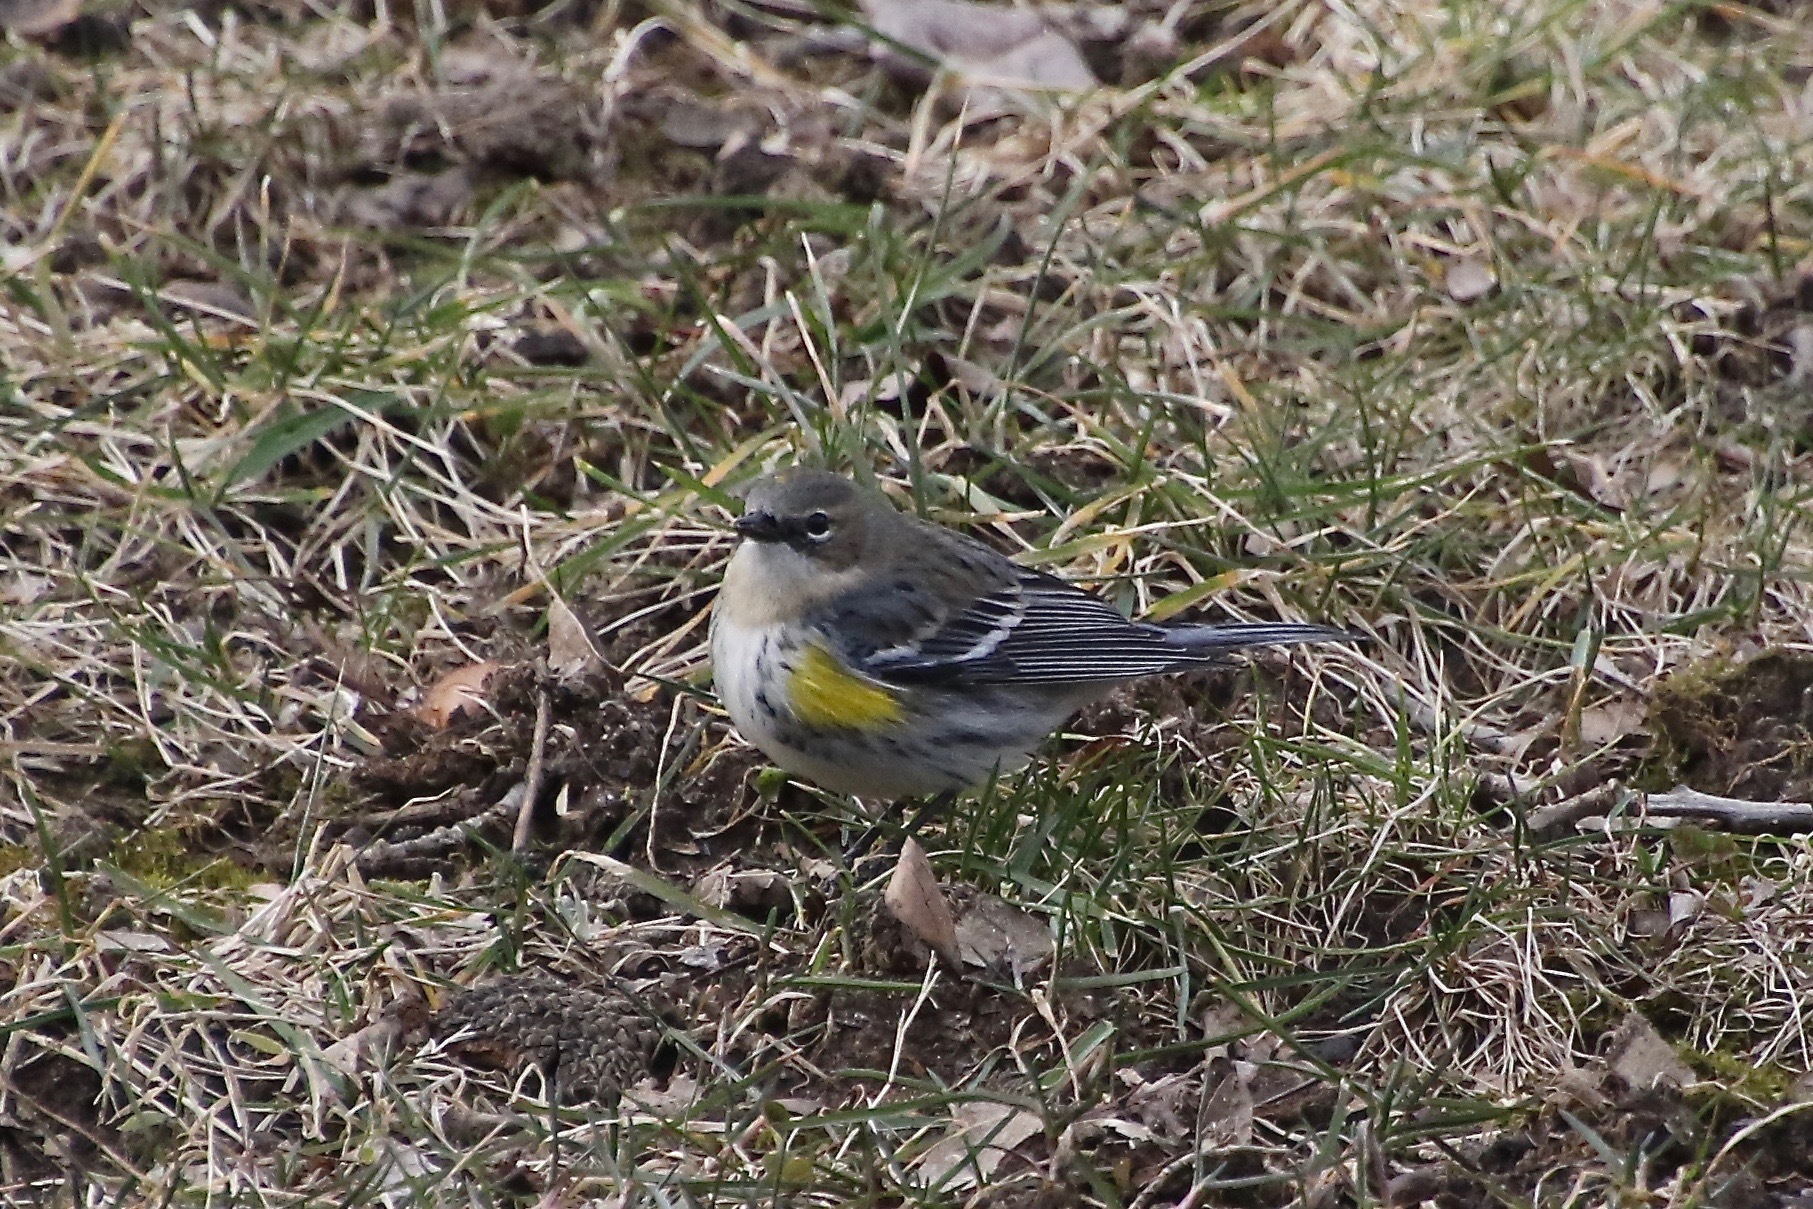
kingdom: Animalia
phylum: Chordata
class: Aves
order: Passeriformes
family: Parulidae
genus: Setophaga
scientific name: Setophaga coronata
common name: Myrtle warbler
